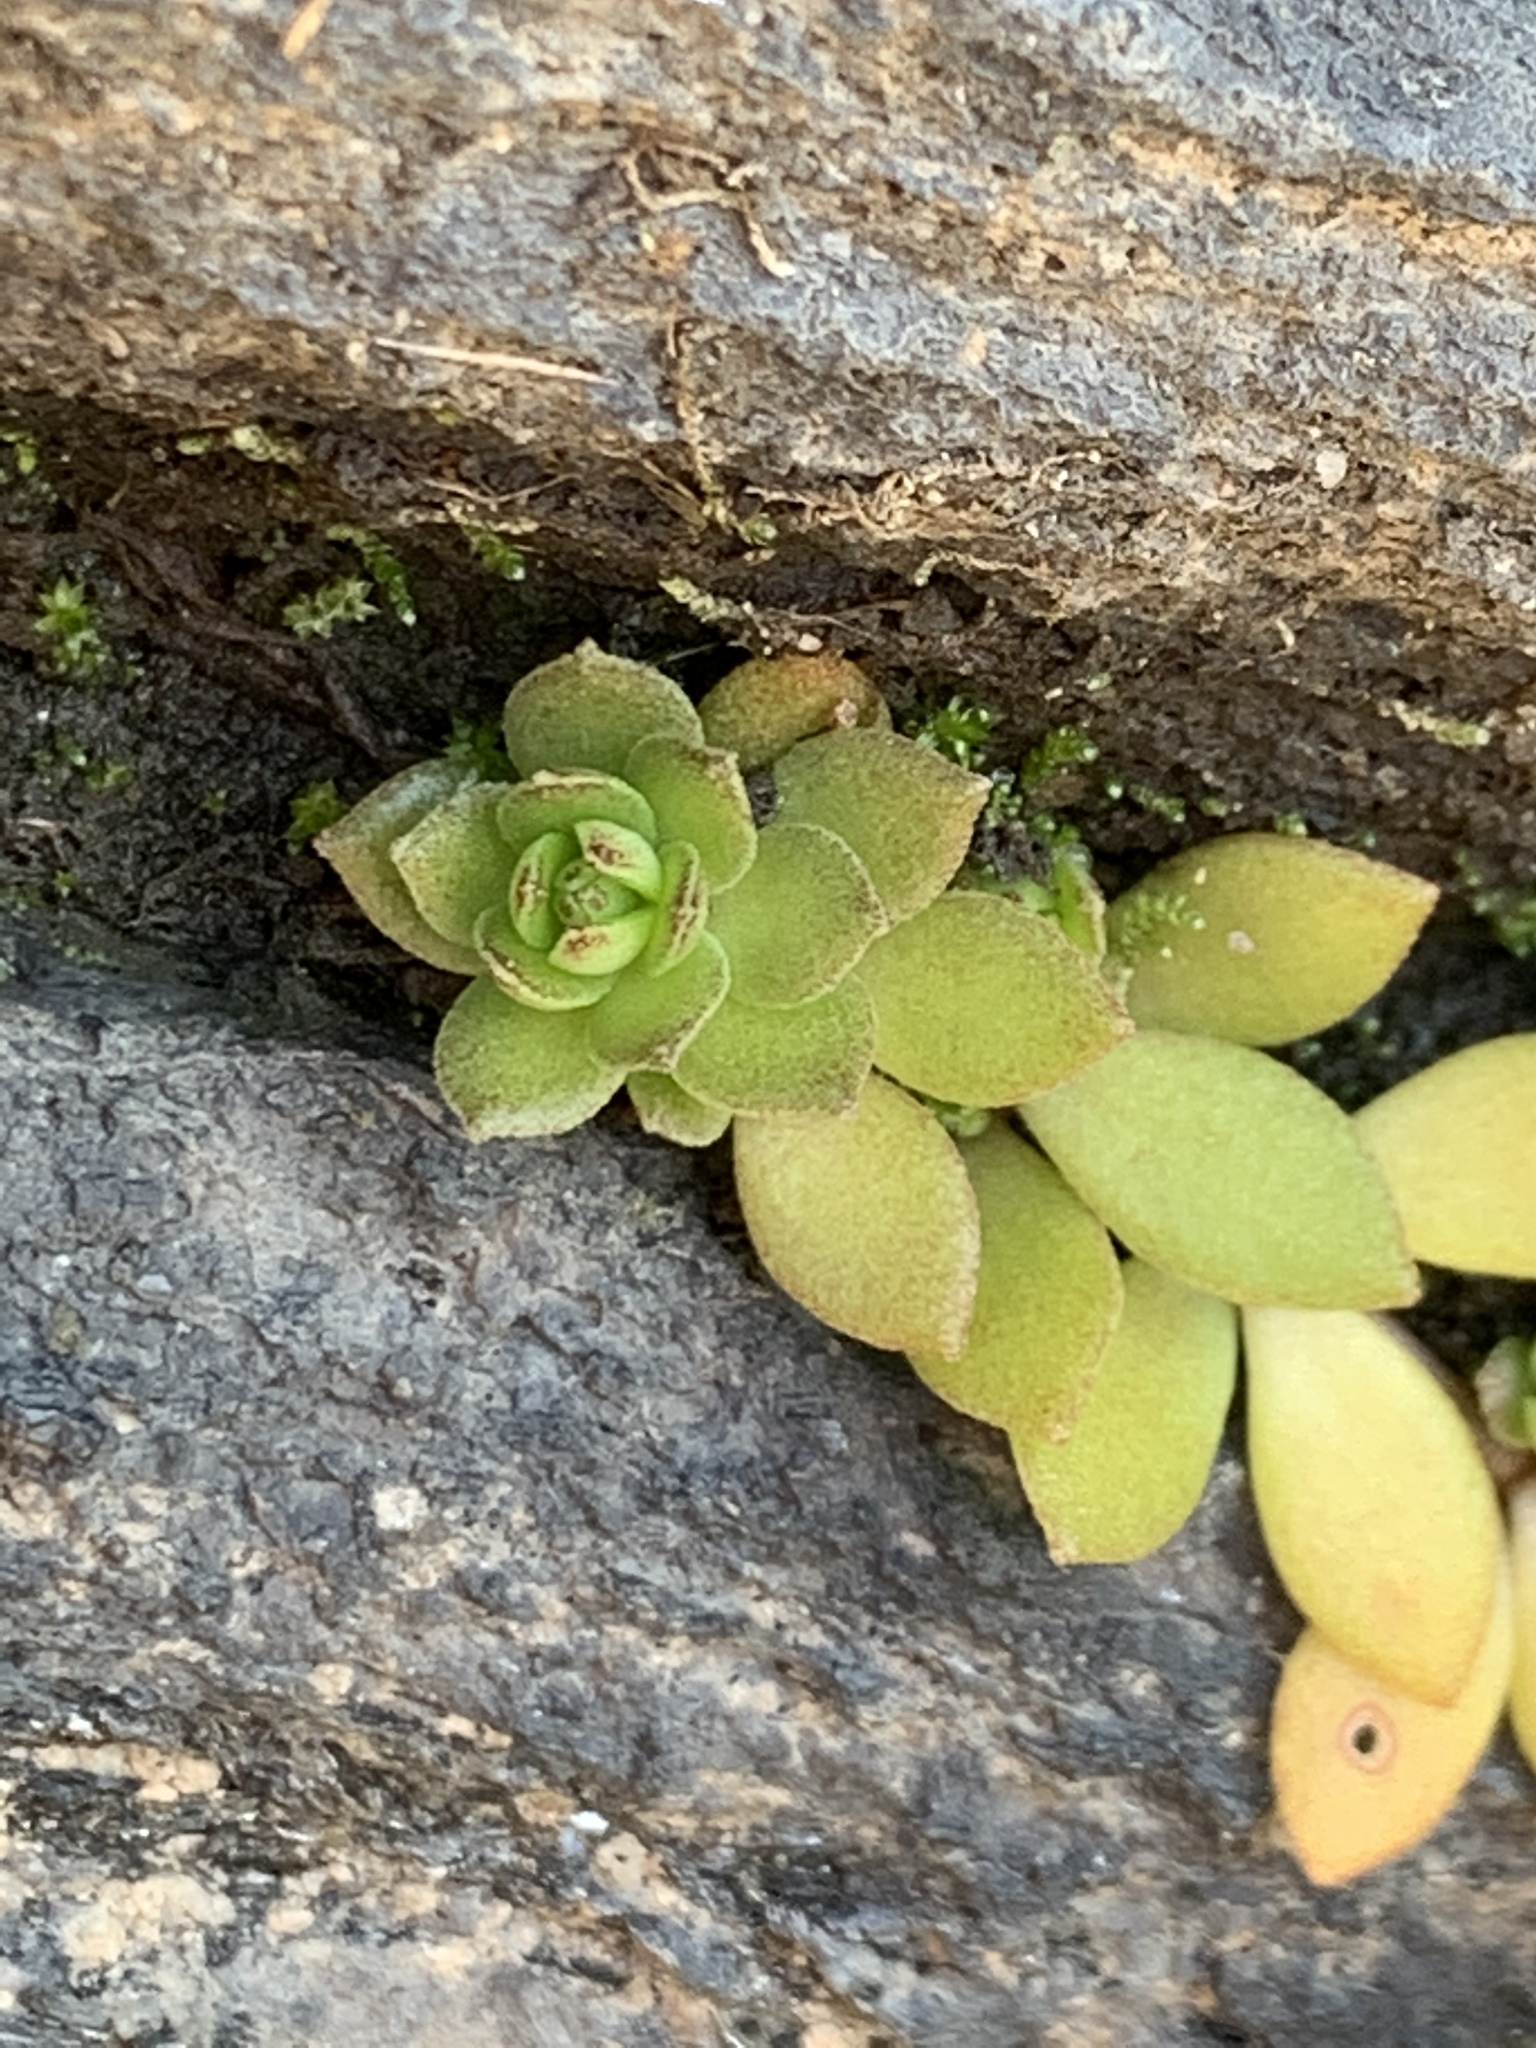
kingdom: Plantae
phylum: Tracheophyta
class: Magnoliopsida
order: Saxifragales
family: Crassulaceae
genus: Sedum
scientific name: Sedum sarmentosum
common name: Stringy stonecrop
